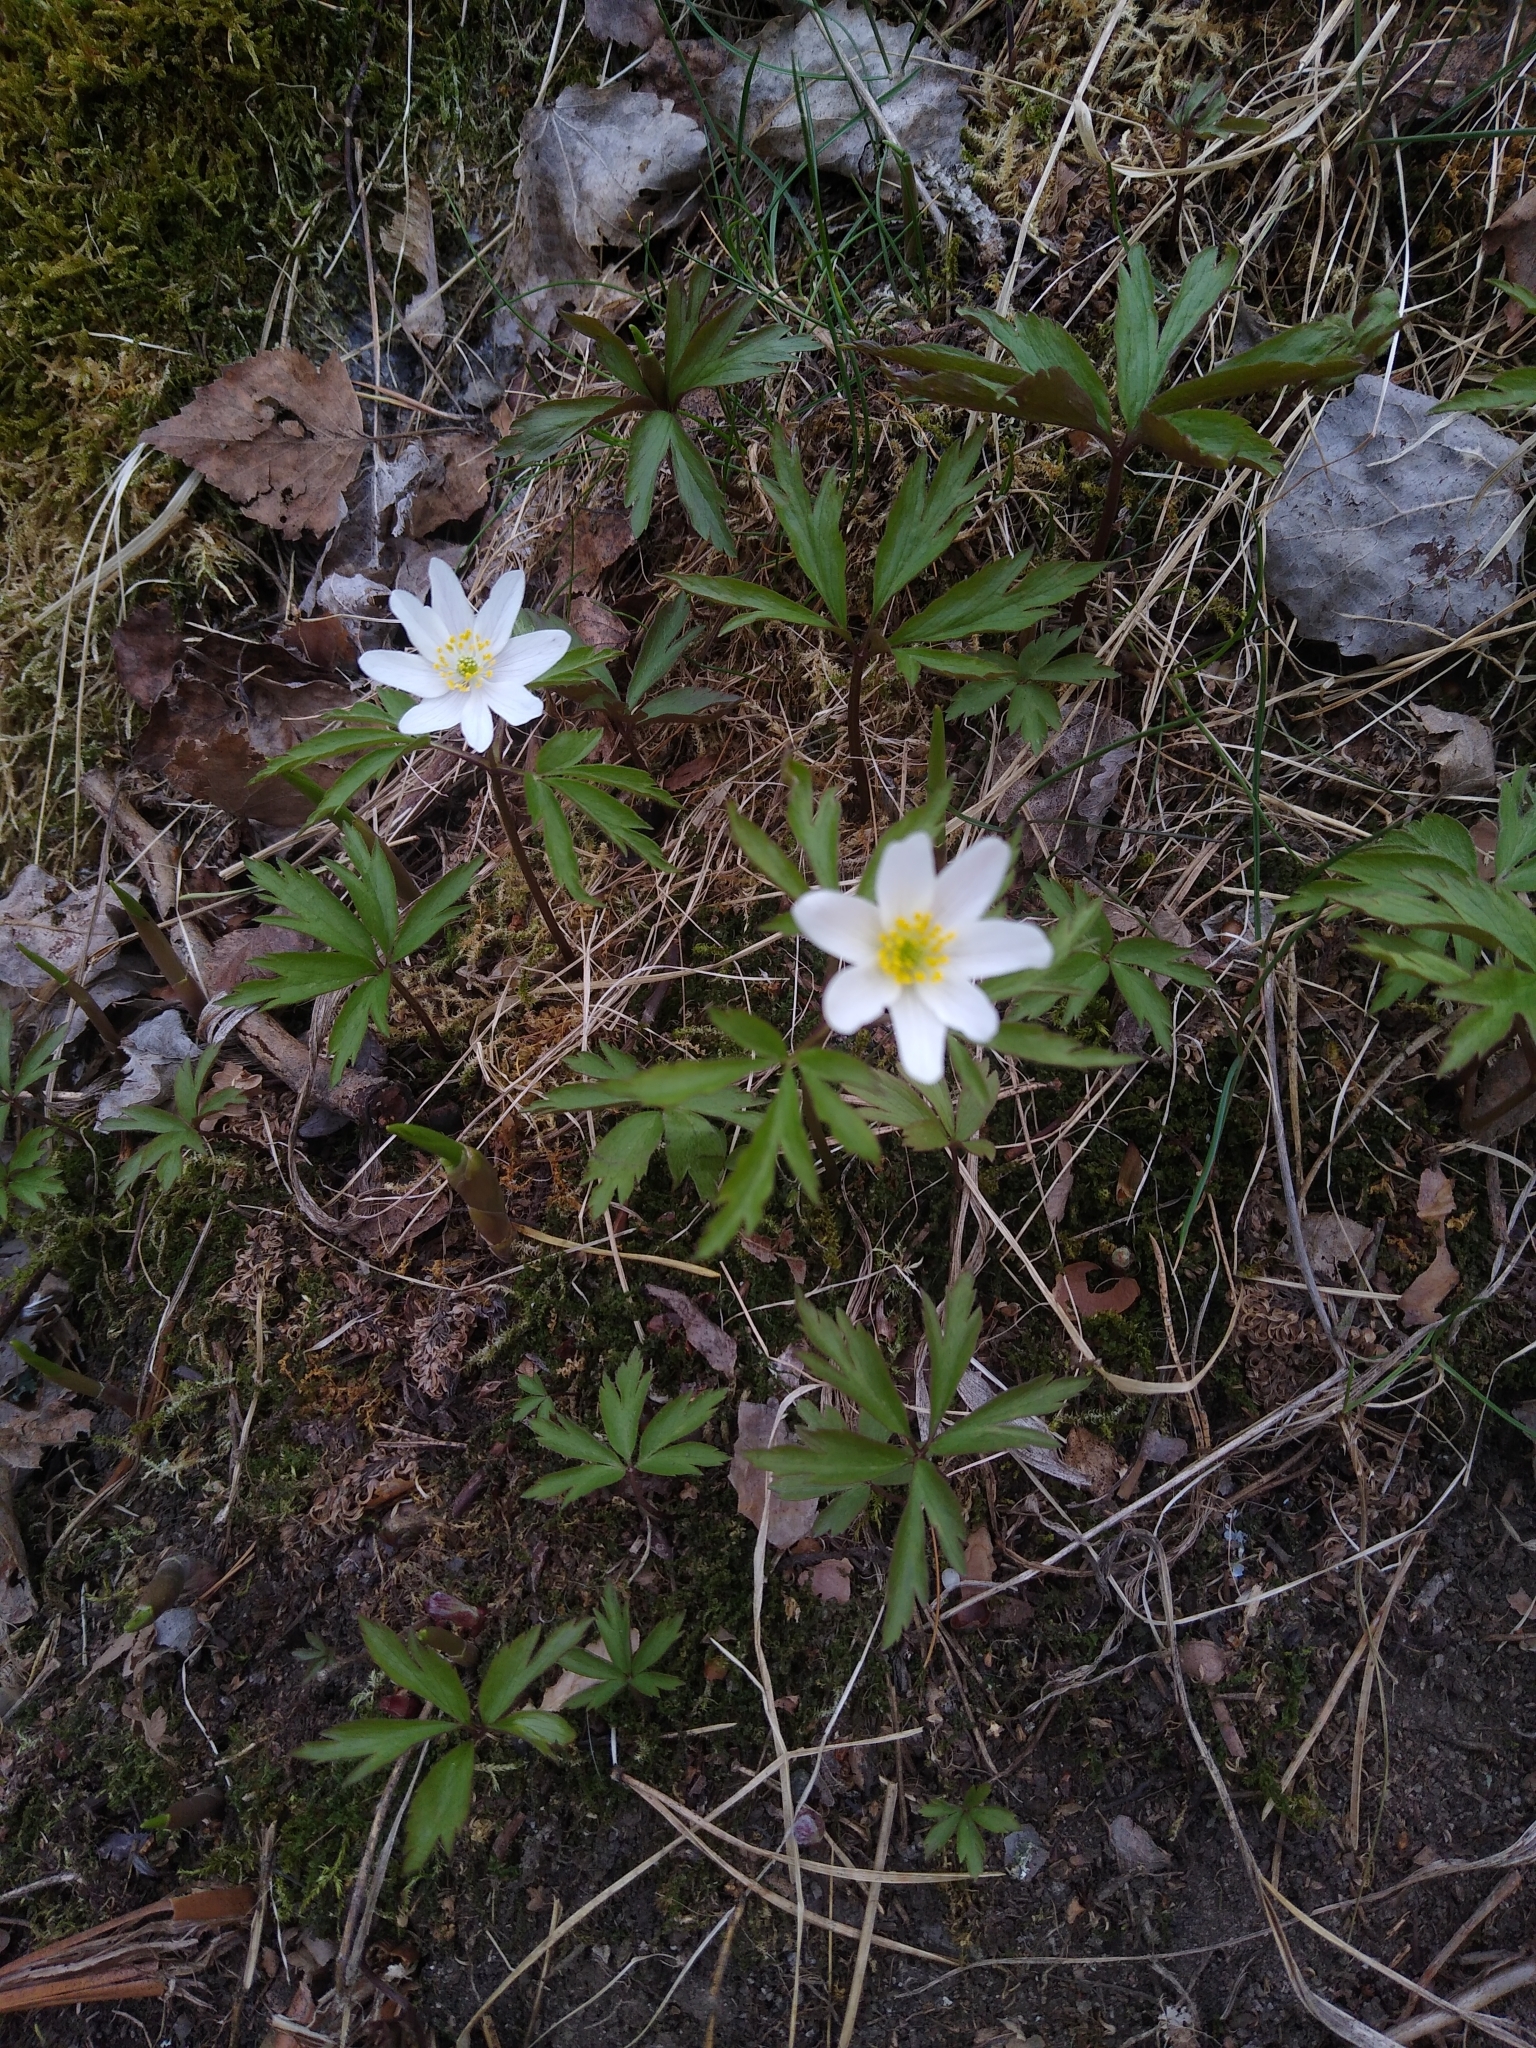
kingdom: Plantae
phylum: Tracheophyta
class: Magnoliopsida
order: Ranunculales
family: Ranunculaceae
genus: Anemone
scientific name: Anemone nemorosa
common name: Wood anemone
